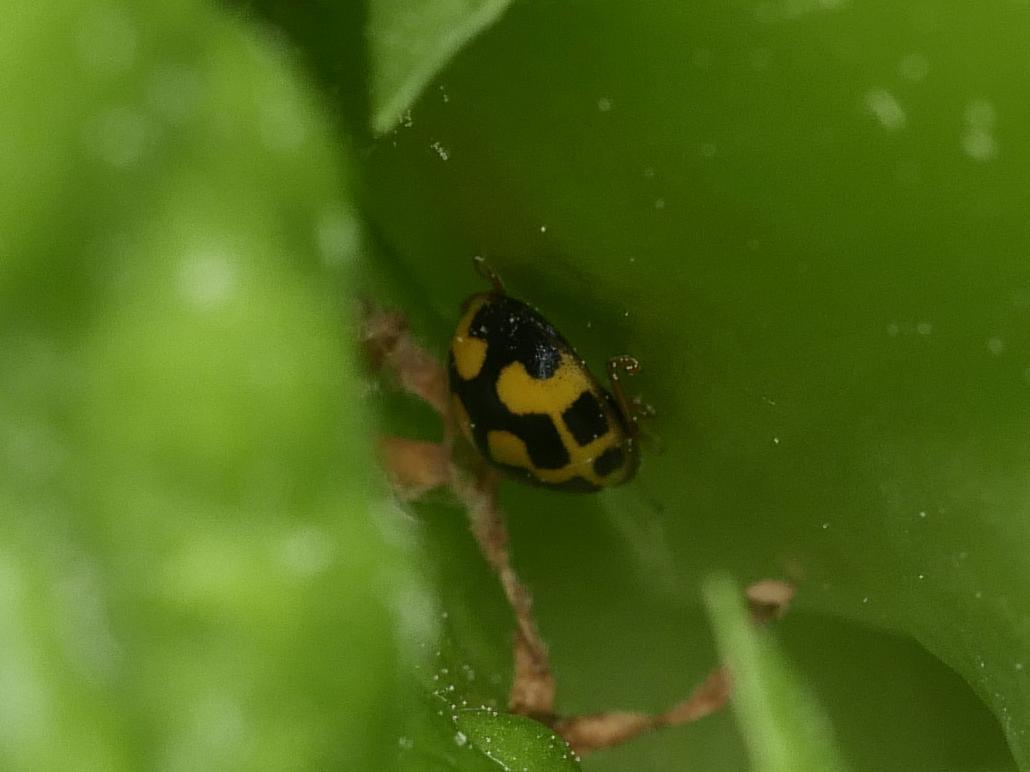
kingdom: Animalia
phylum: Arthropoda
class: Insecta
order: Coleoptera
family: Coccinellidae
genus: Propylaea
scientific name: Propylaea quatuordecimpunctata
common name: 14-spotted ladybird beetle
